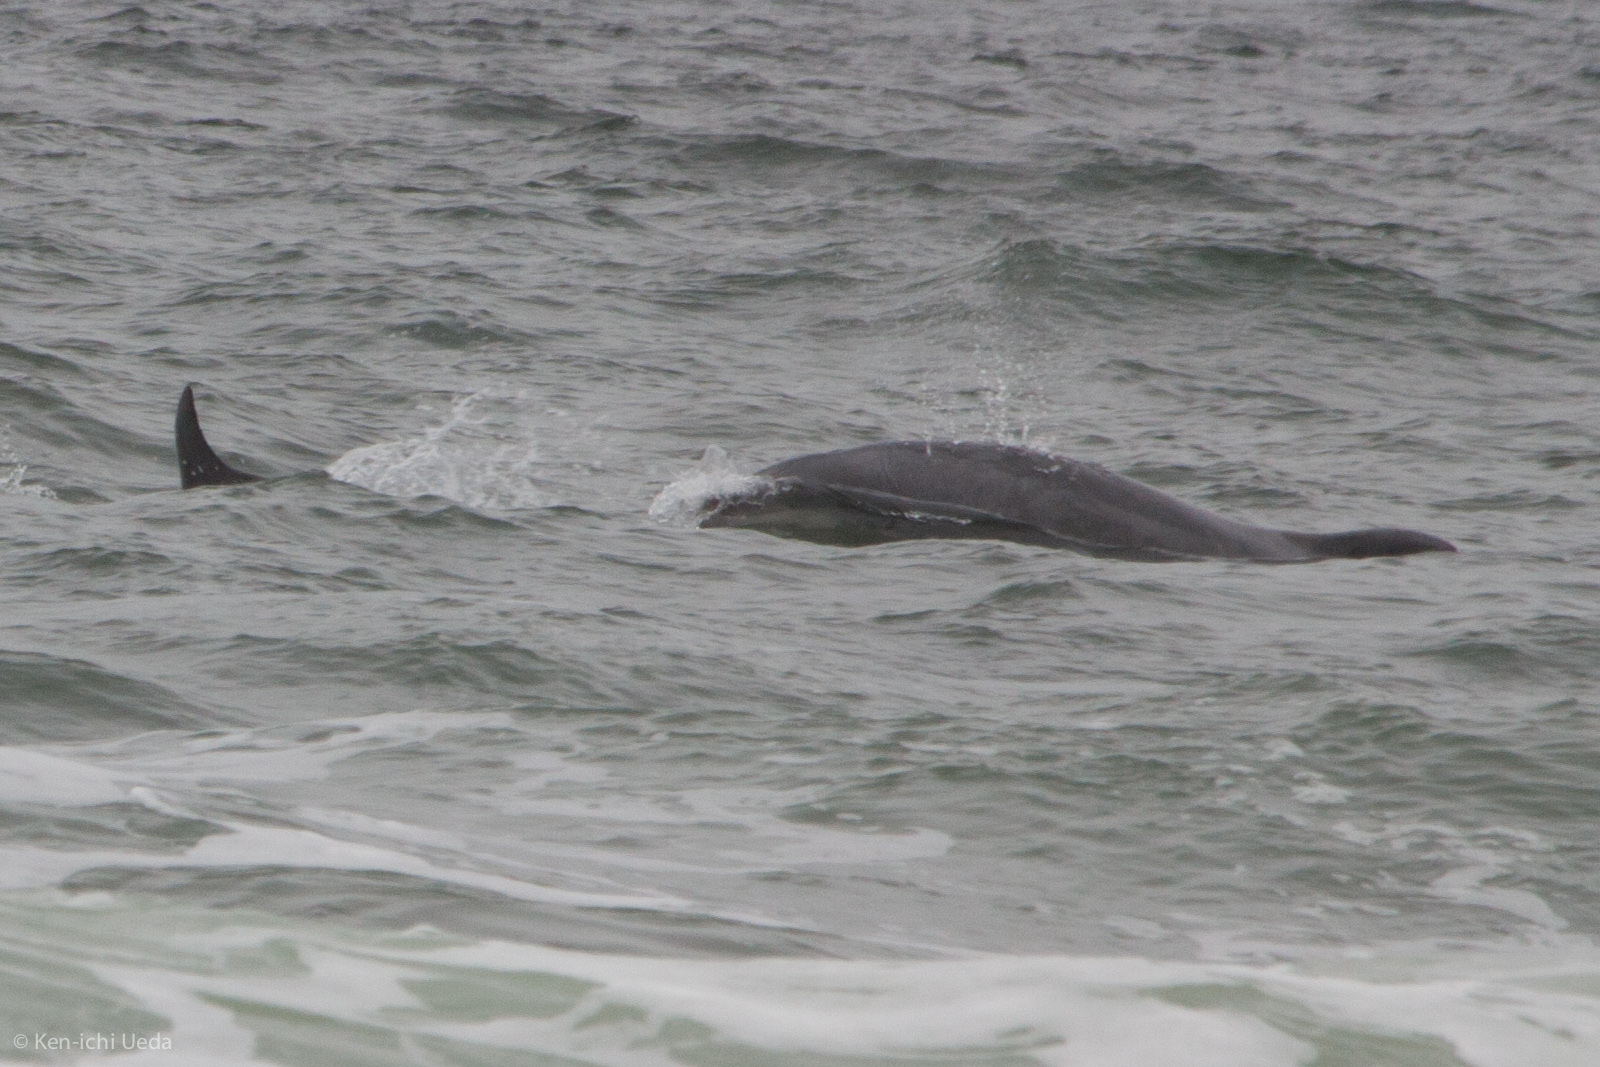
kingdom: Animalia
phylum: Chordata
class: Mammalia
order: Cetacea
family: Delphinidae
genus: Tursiops
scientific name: Tursiops truncatus
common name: Bottlenose dolphin
